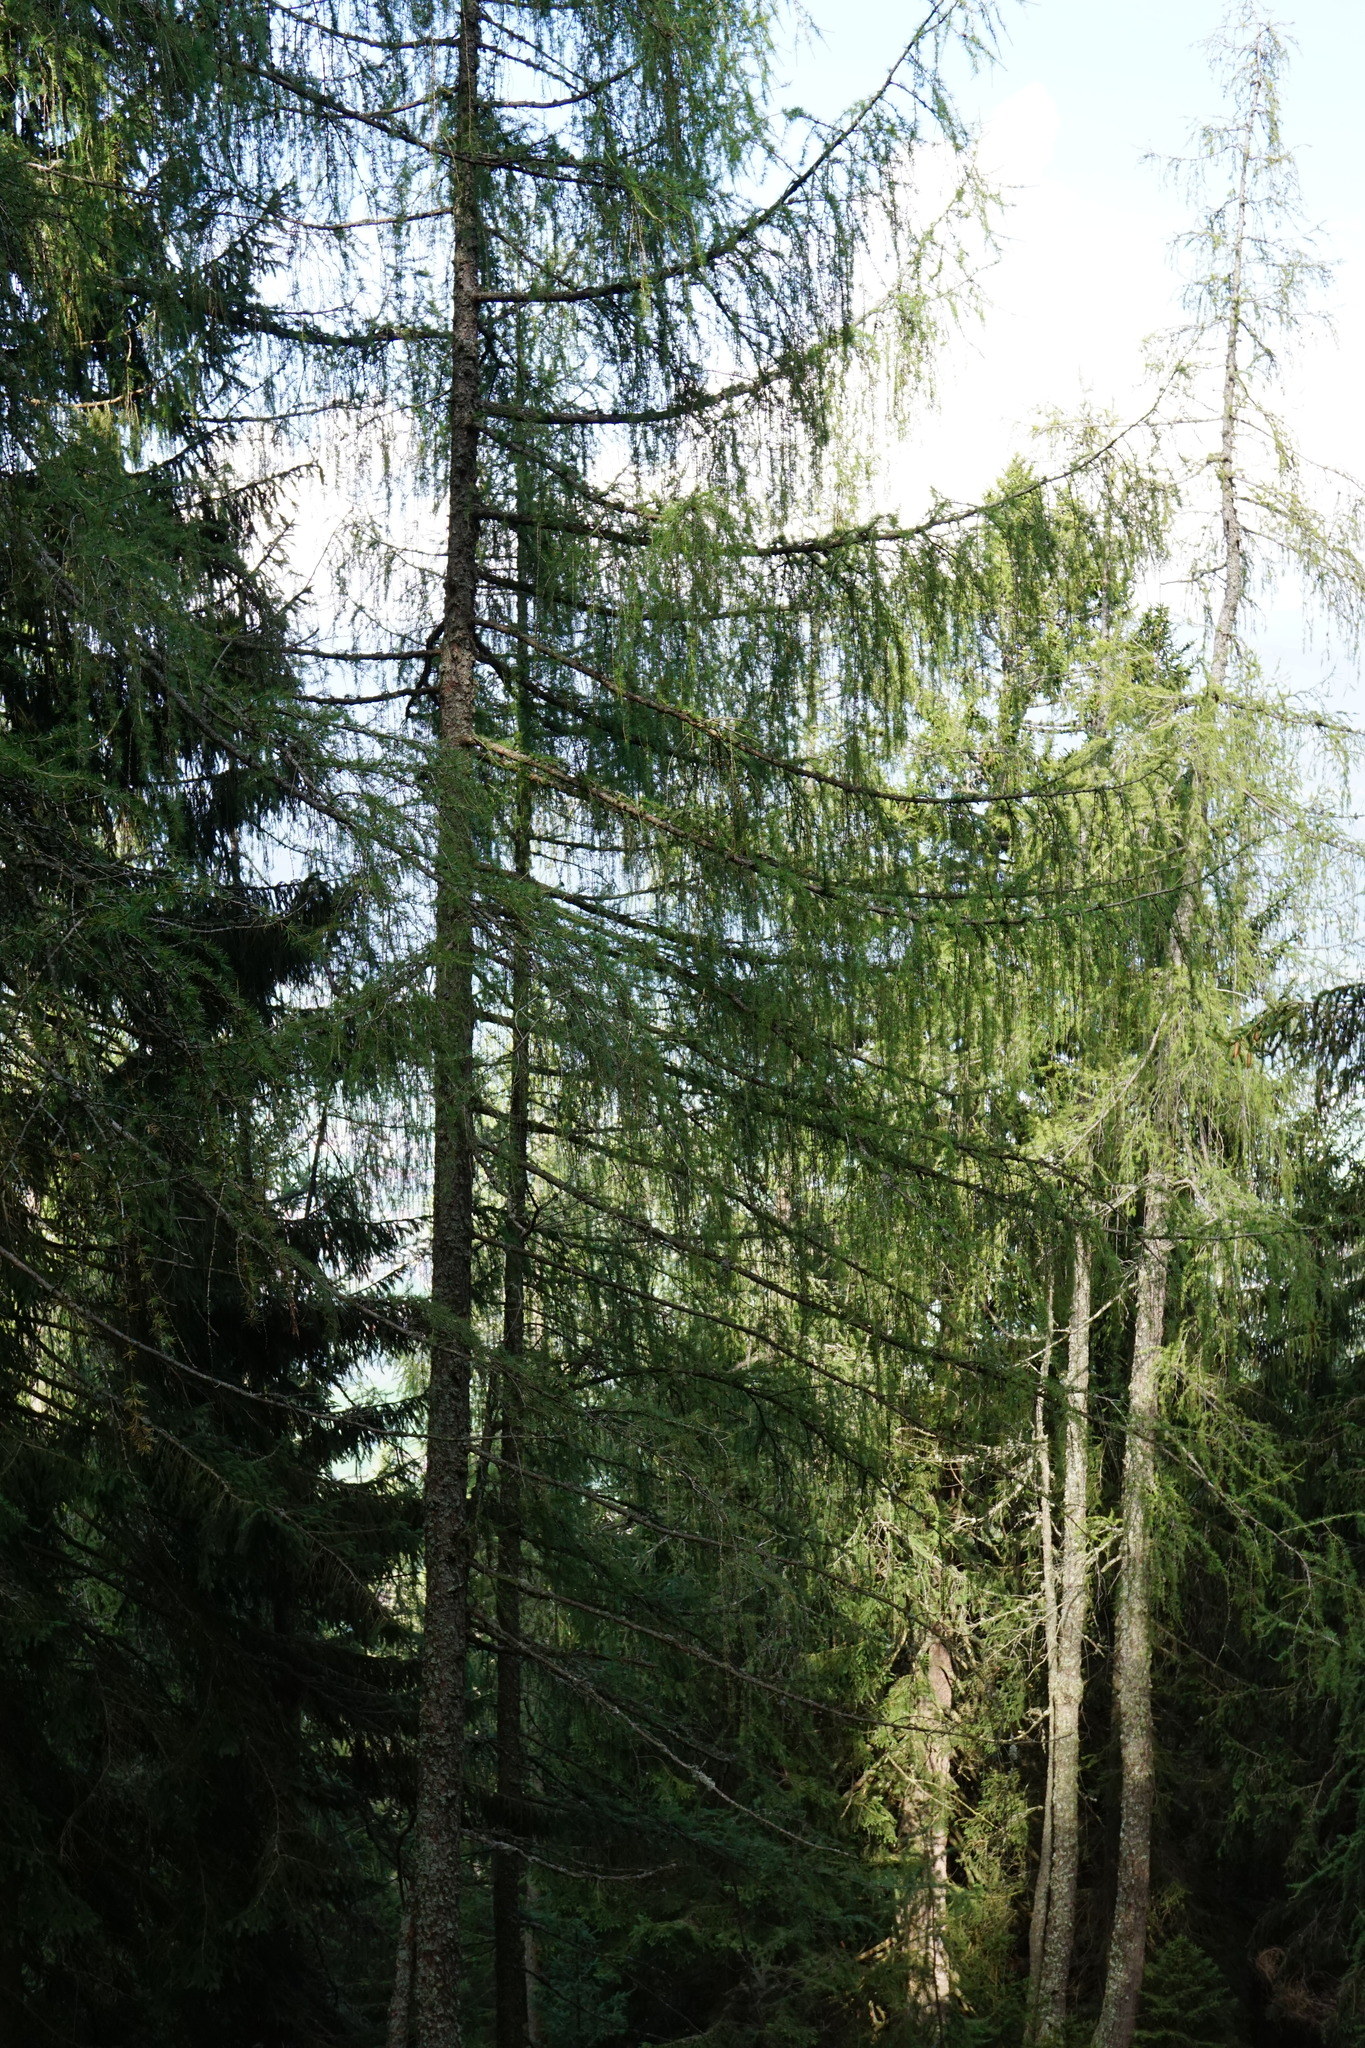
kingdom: Plantae
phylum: Tracheophyta
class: Pinopsida
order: Pinales
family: Pinaceae
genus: Larix
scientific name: Larix decidua
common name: European larch
